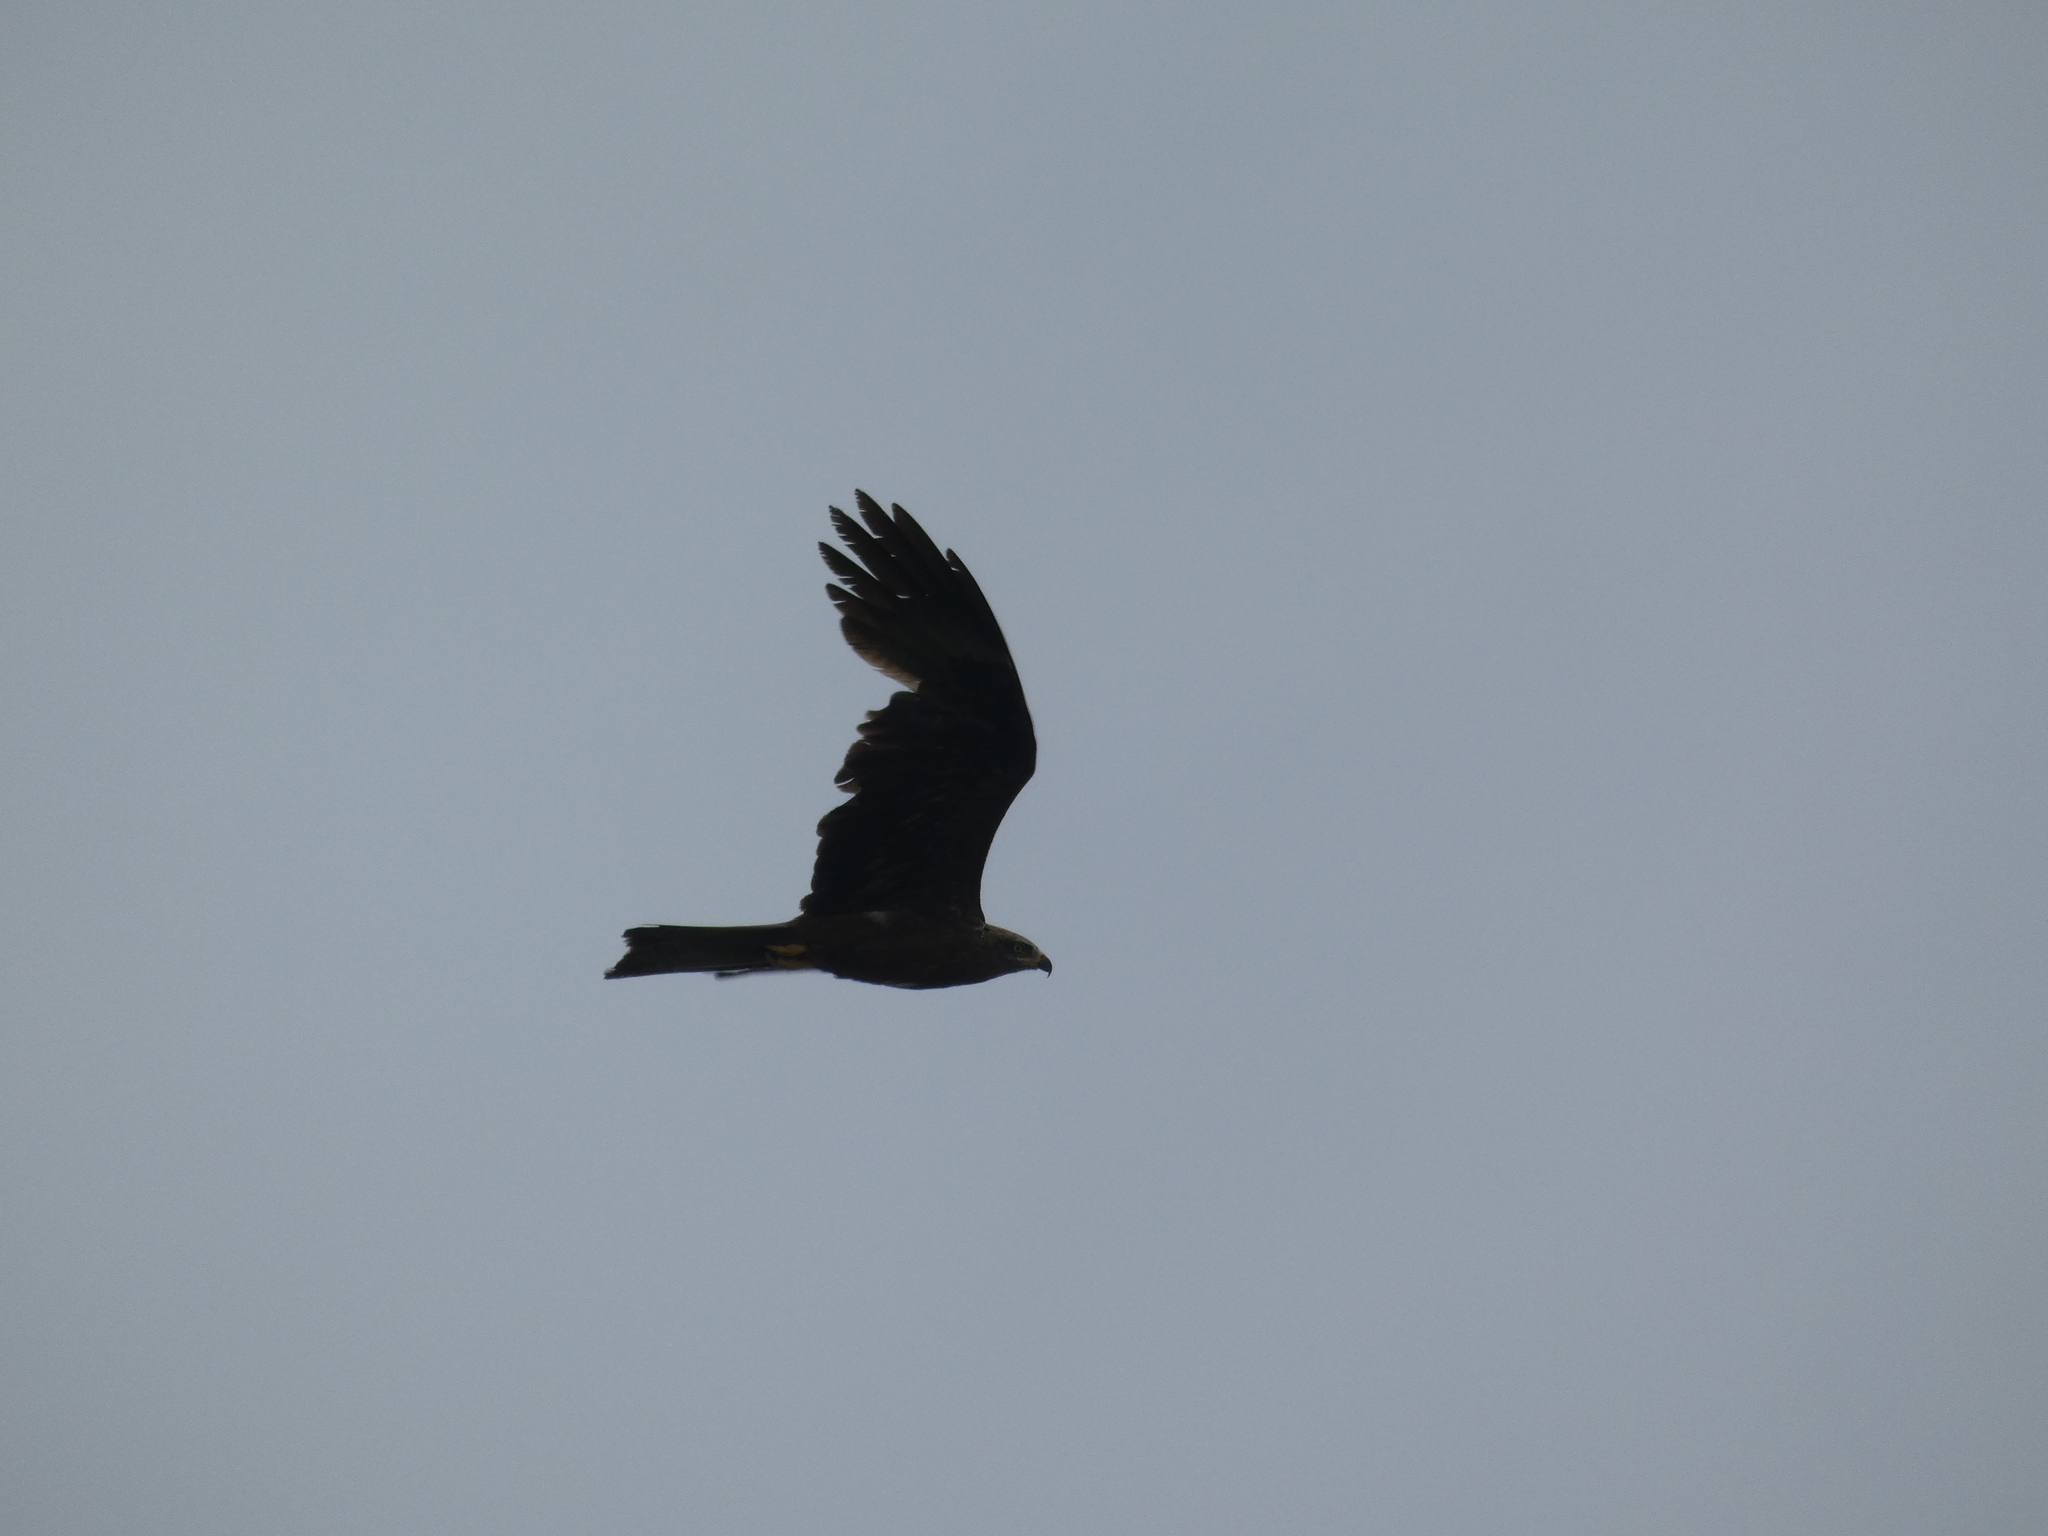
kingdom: Animalia
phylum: Chordata
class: Aves
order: Accipitriformes
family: Accipitridae
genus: Milvus
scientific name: Milvus migrans
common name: Black kite
